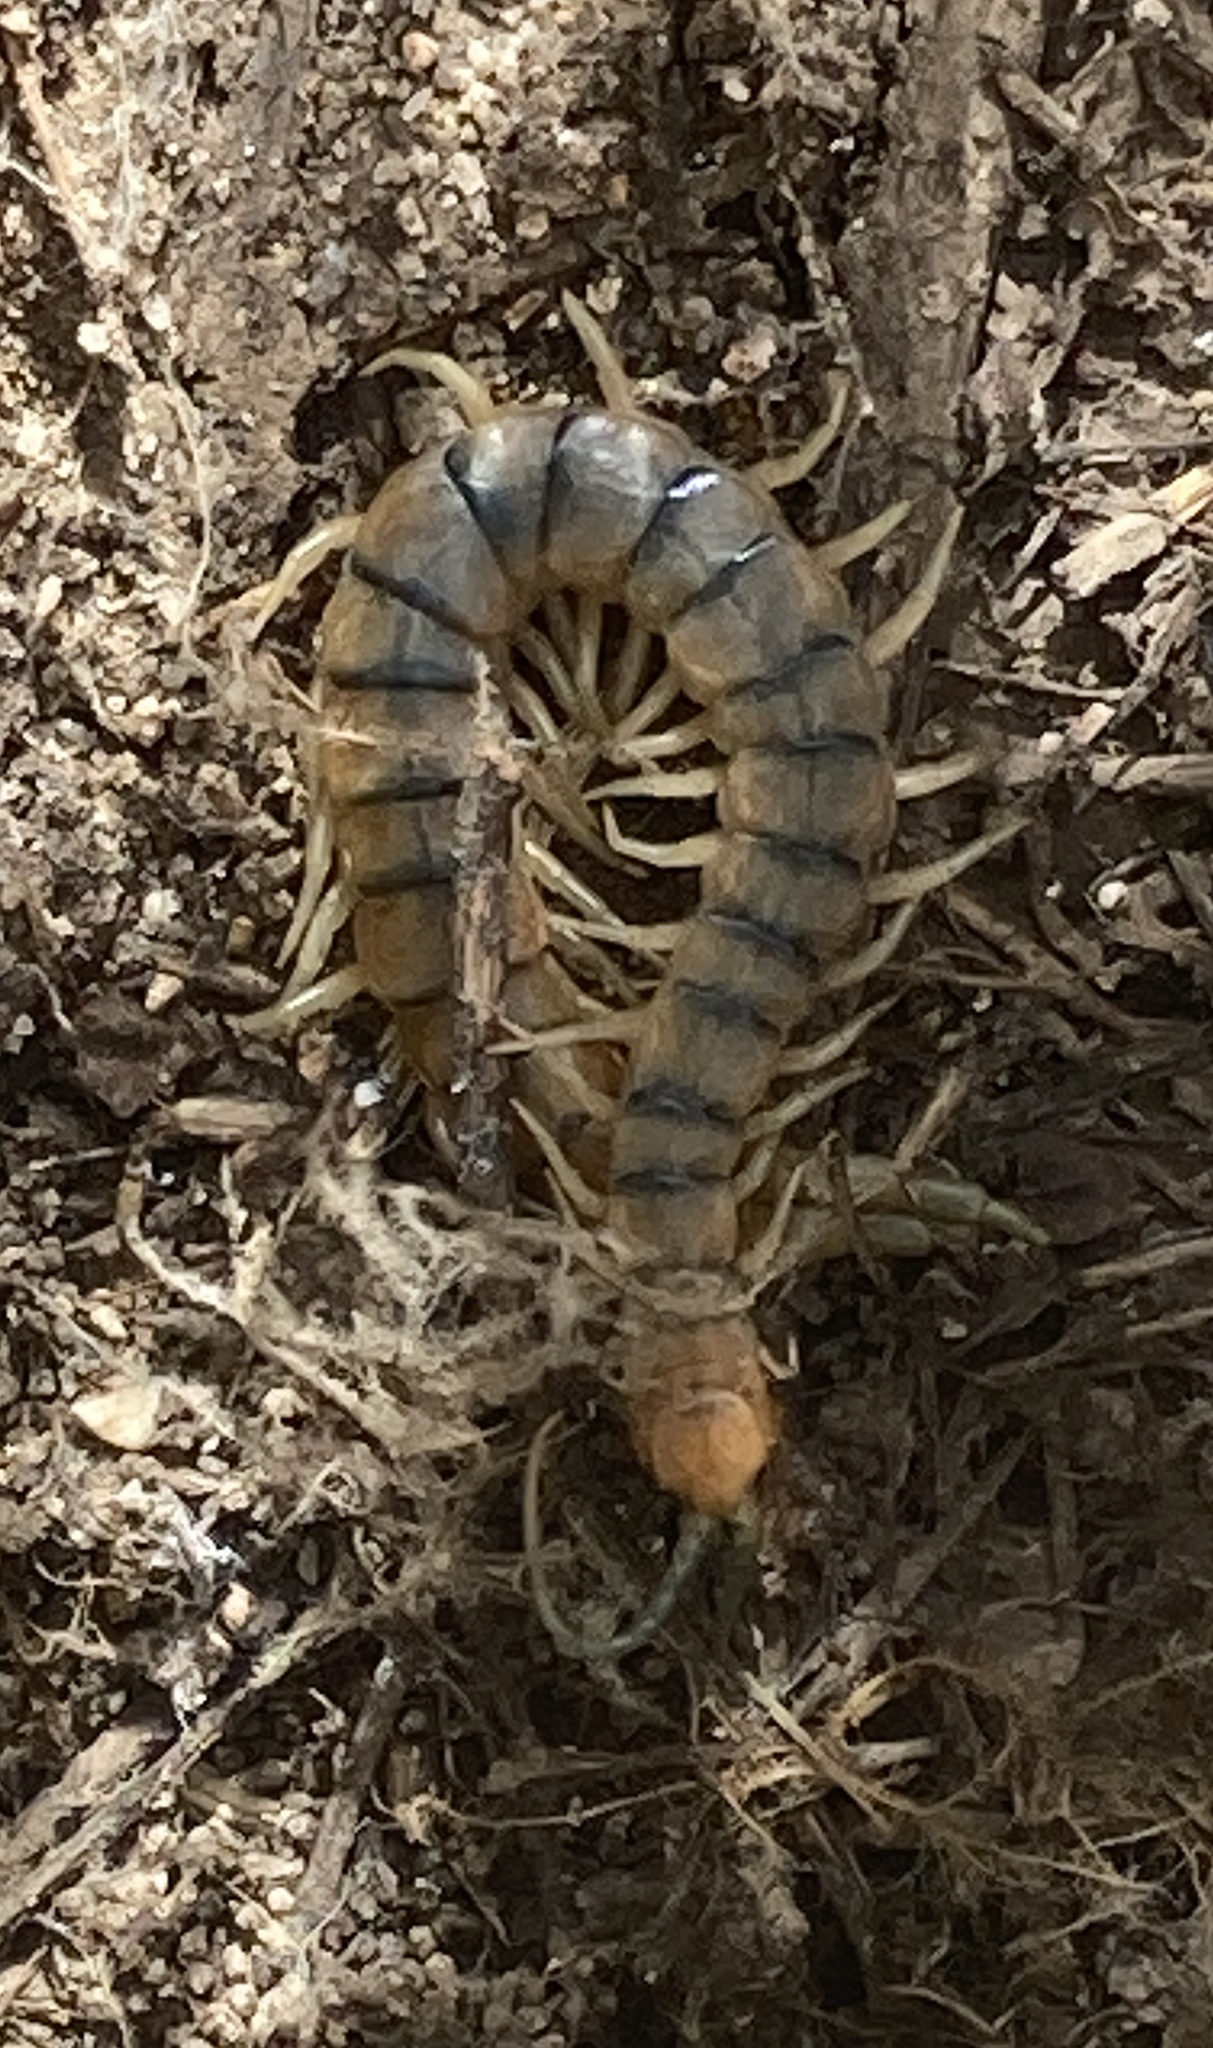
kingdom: Animalia
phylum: Arthropoda
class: Chilopoda
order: Scolopendromorpha
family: Scolopendridae
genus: Scolopendra
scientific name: Scolopendra polymorpha
